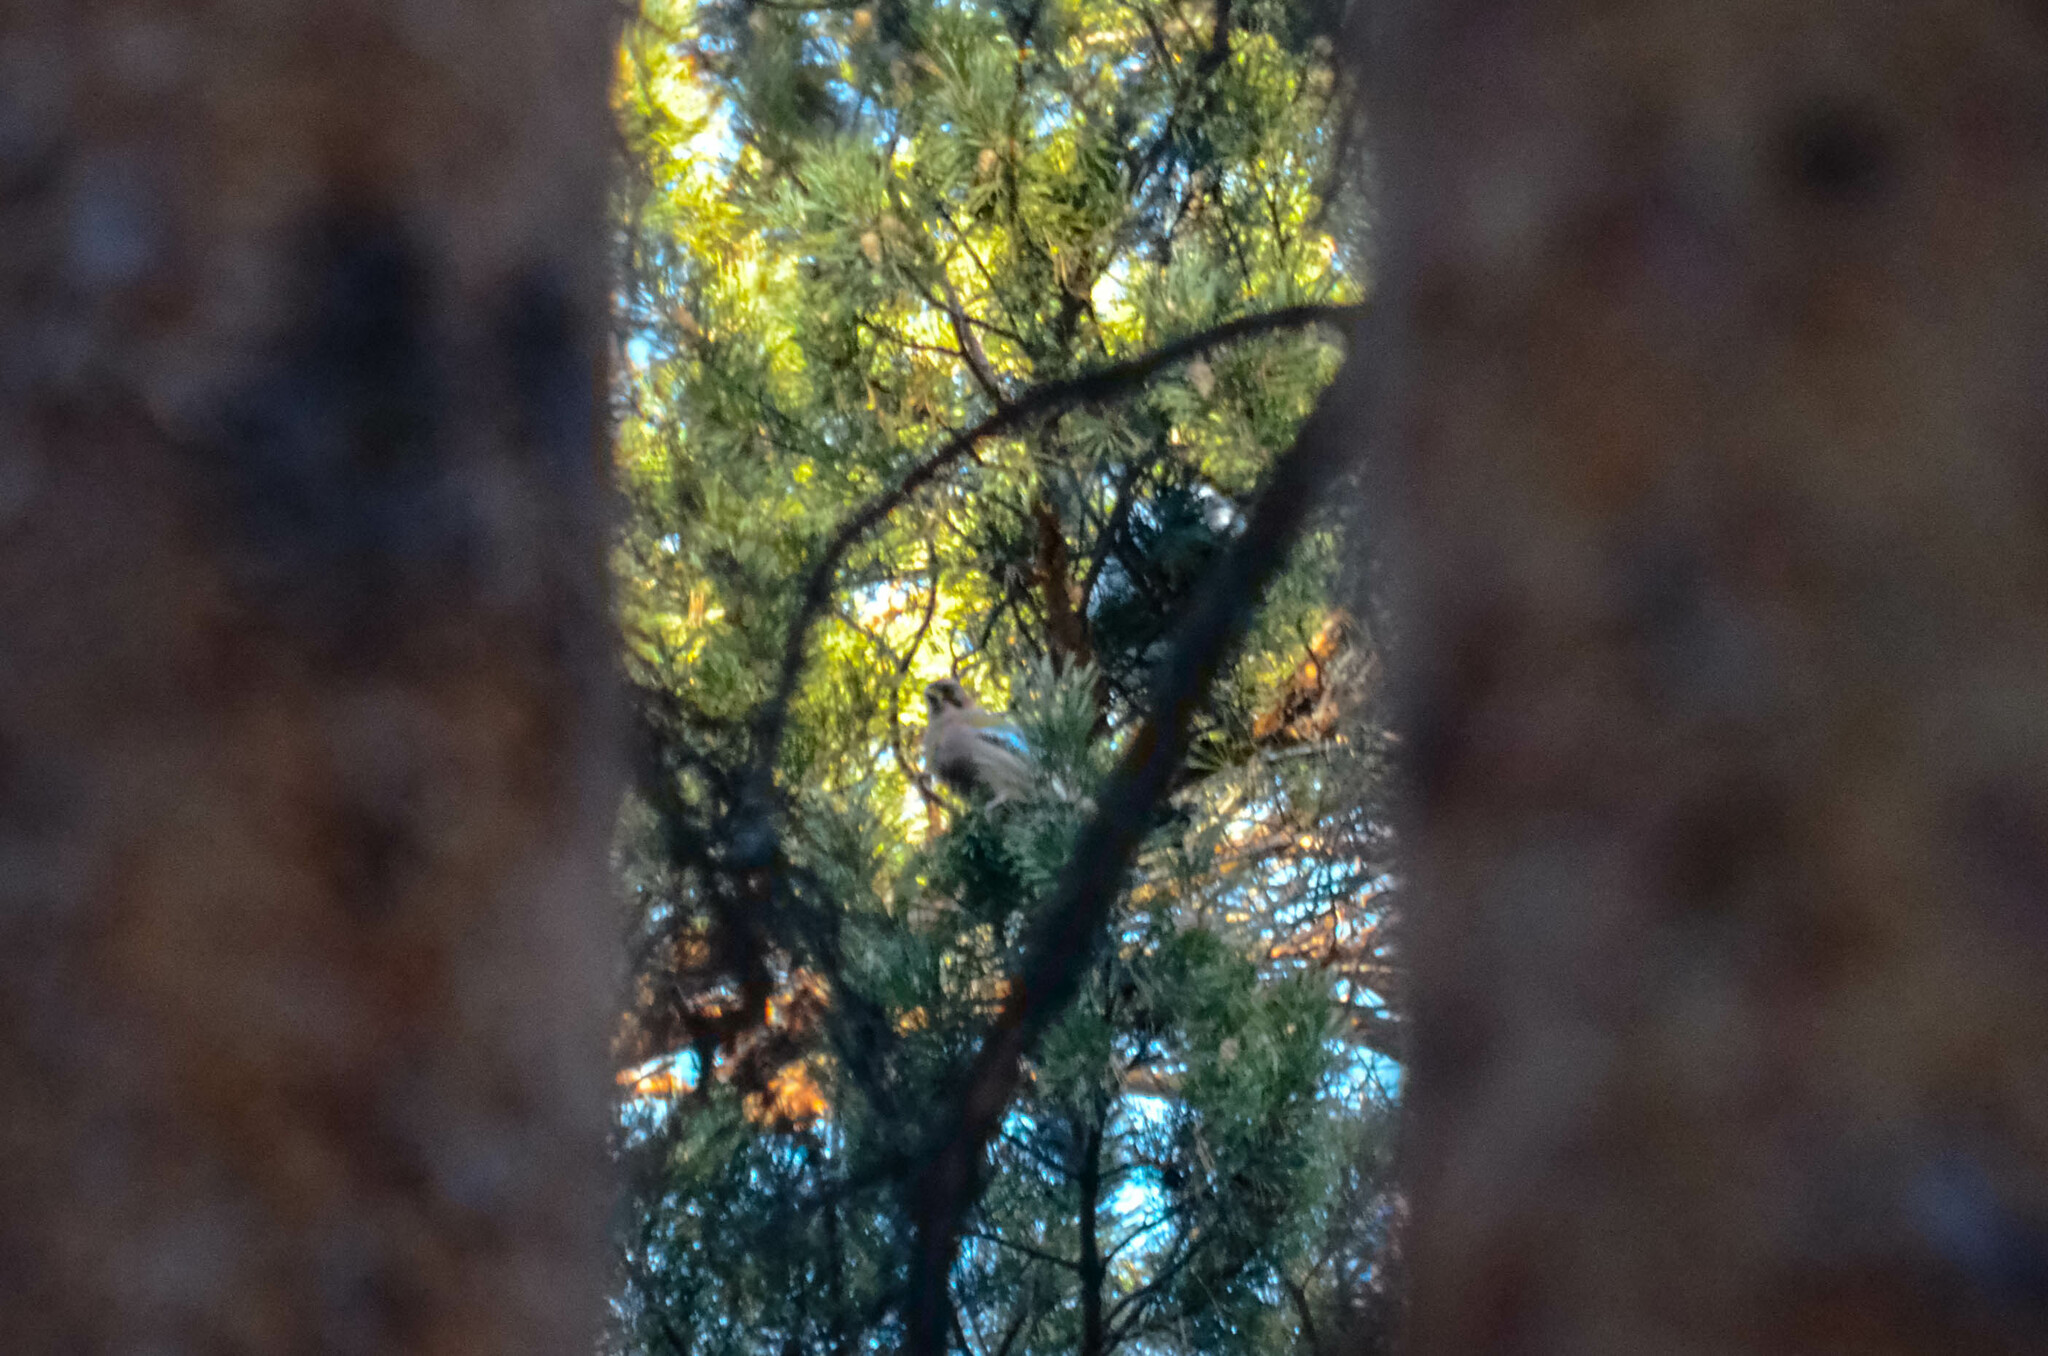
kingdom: Animalia
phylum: Chordata
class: Aves
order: Passeriformes
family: Corvidae
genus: Garrulus
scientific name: Garrulus glandarius
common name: Eurasian jay
